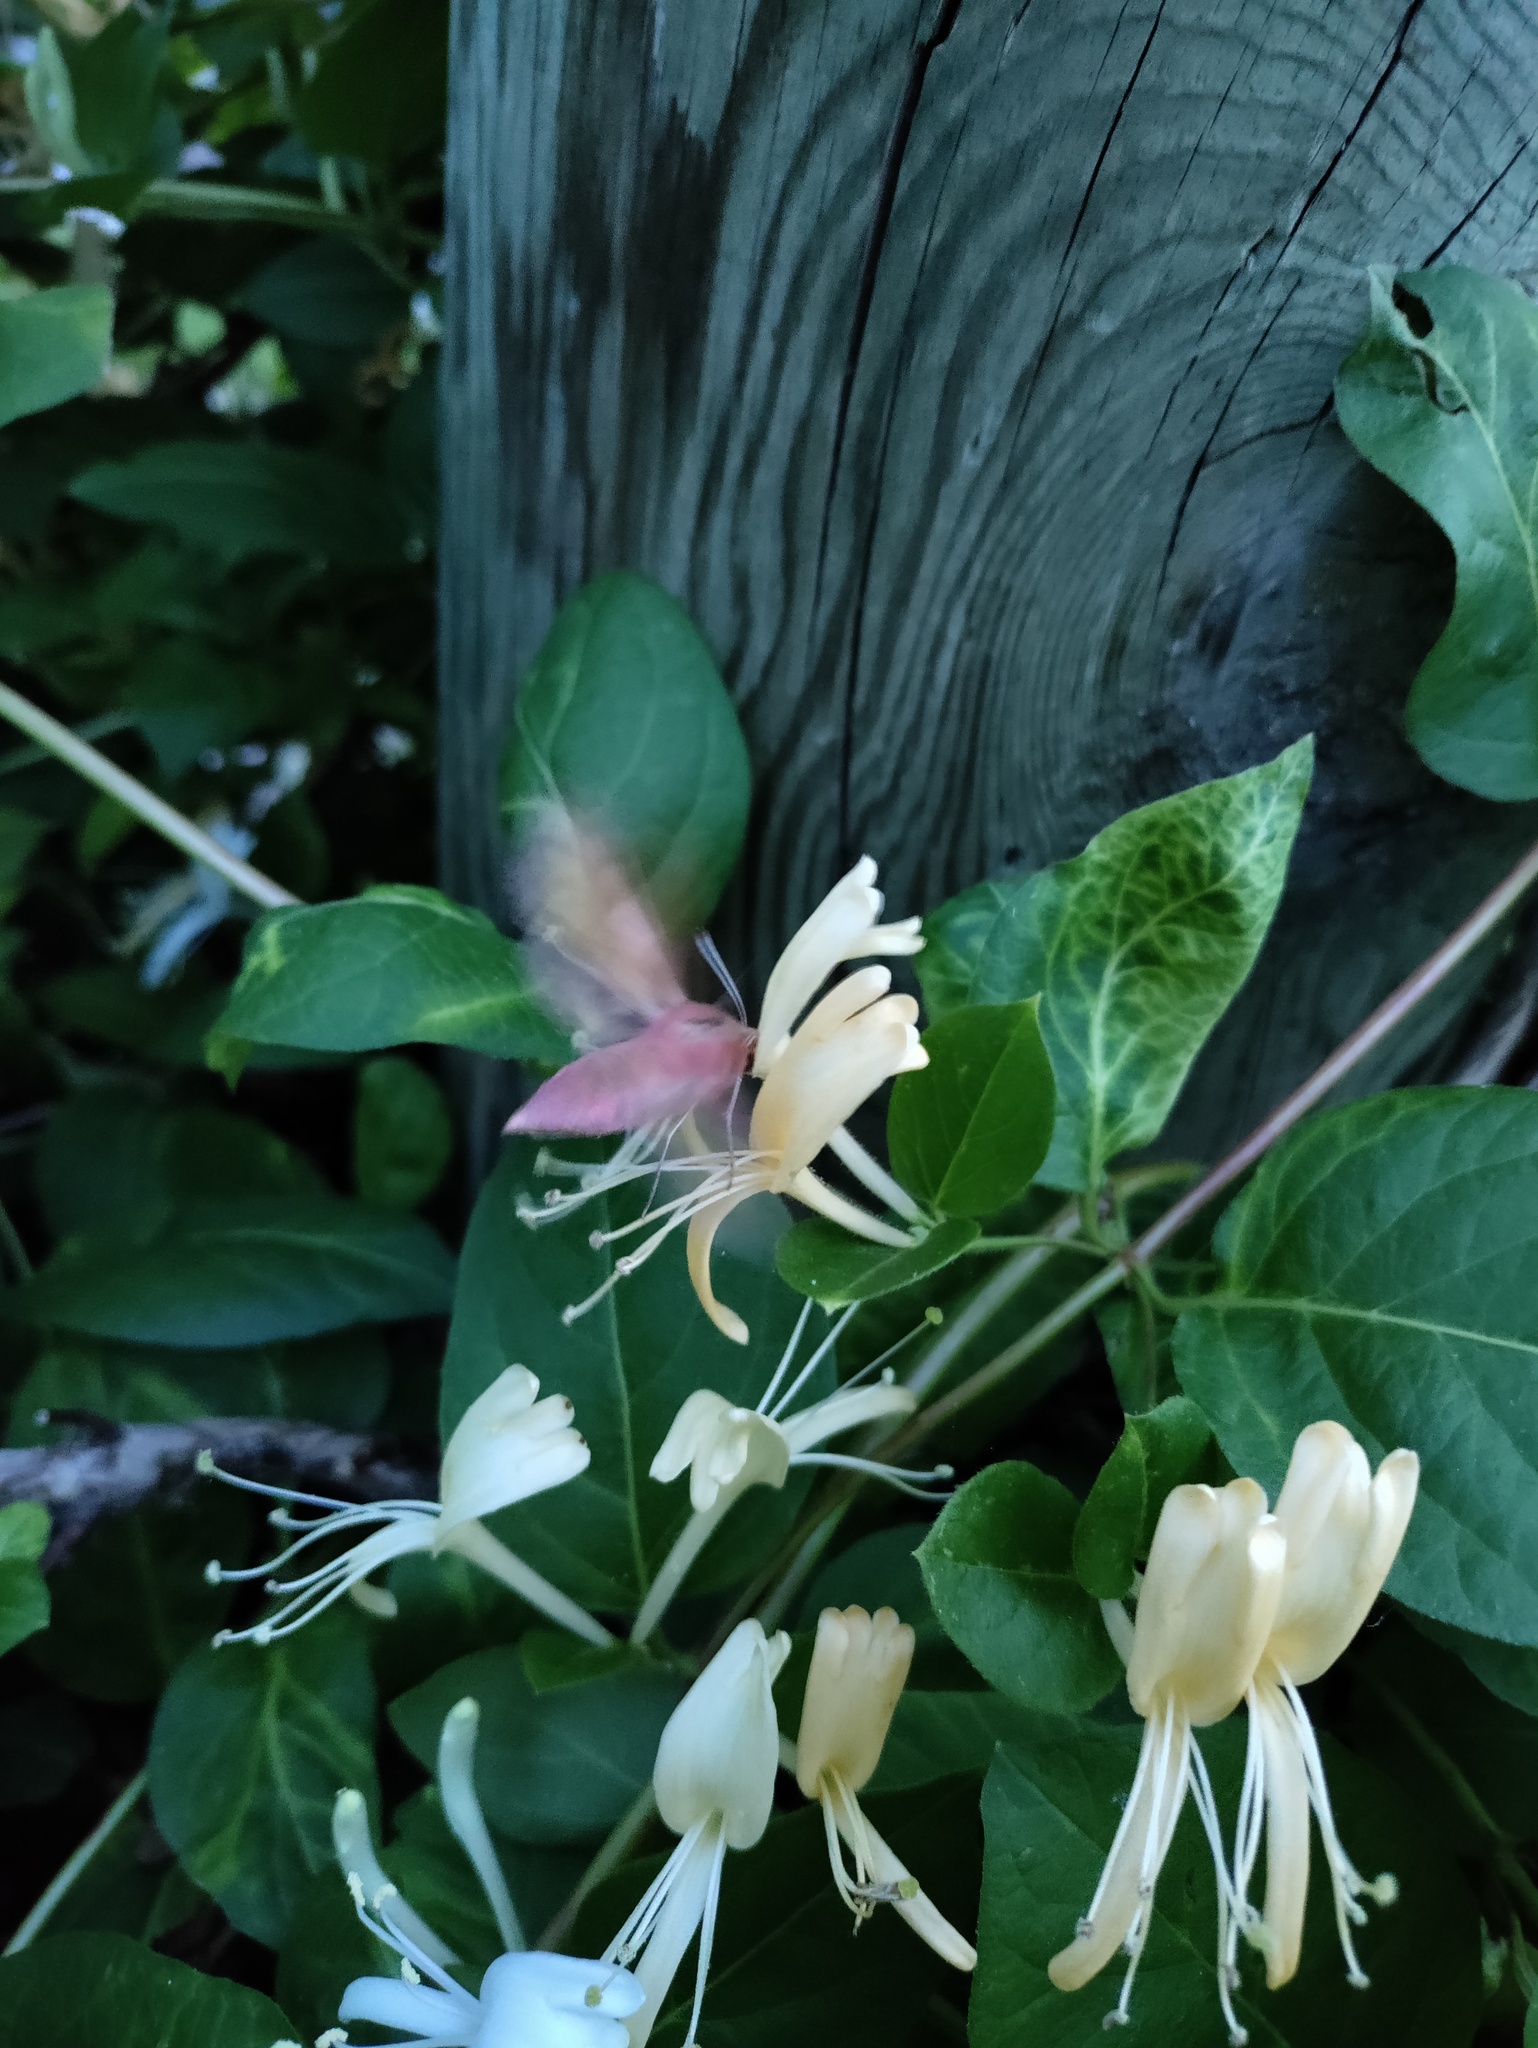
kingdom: Animalia
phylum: Arthropoda
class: Insecta
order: Lepidoptera
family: Sphingidae
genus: Deilephila
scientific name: Deilephila porcellus
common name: Small elephant hawk-moth
